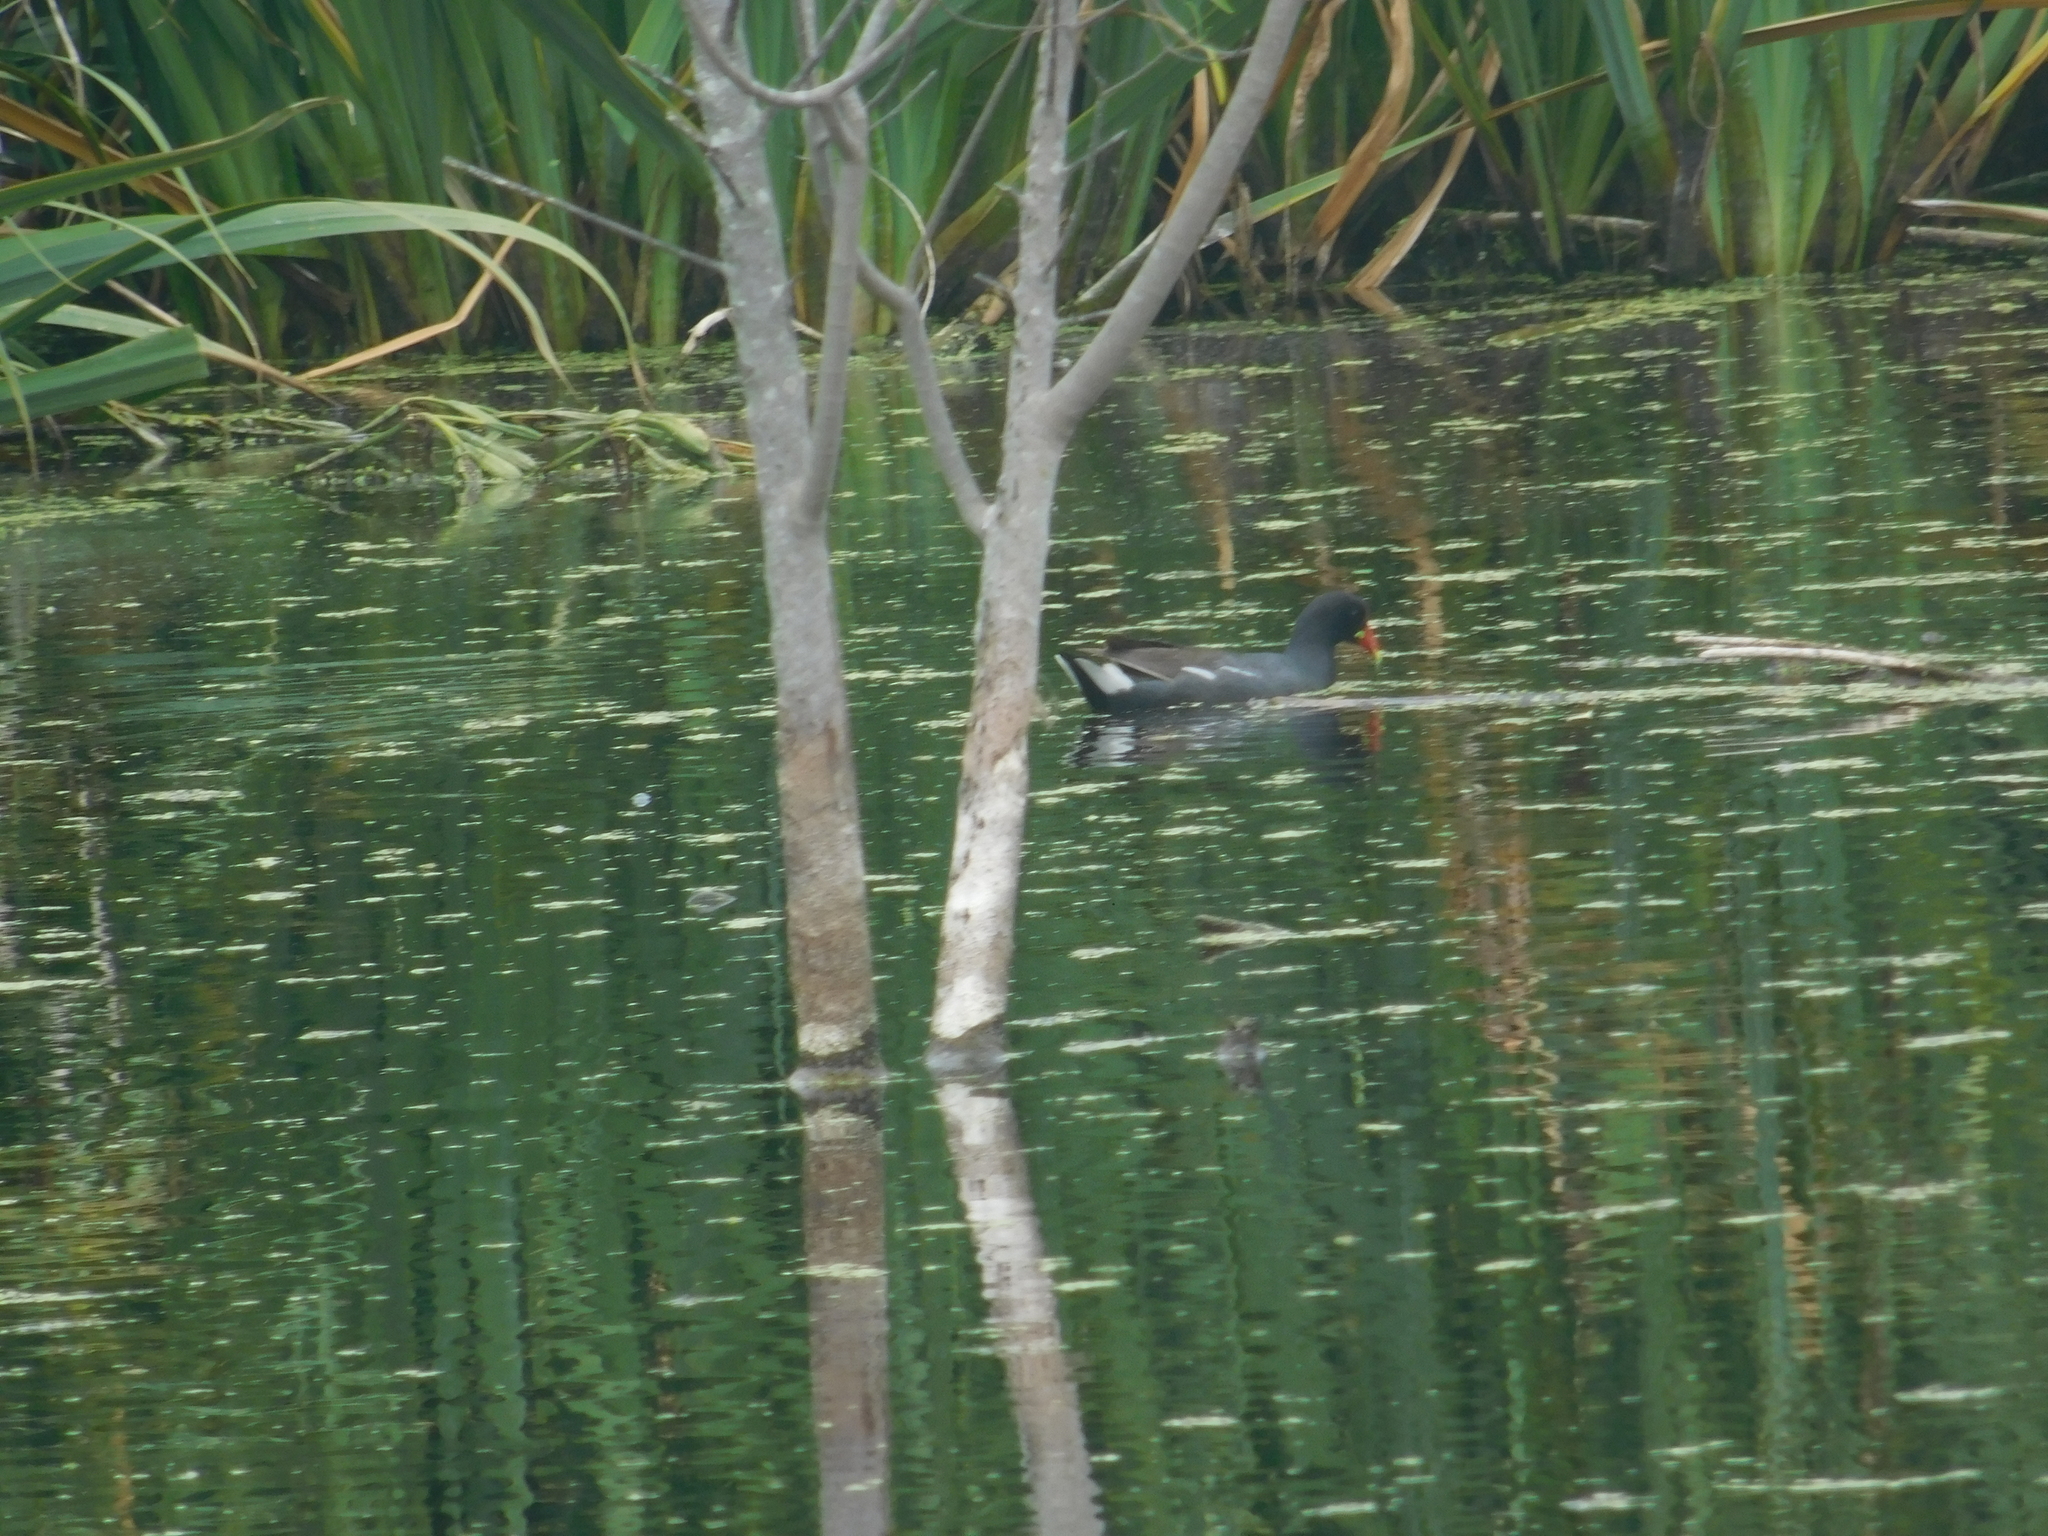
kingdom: Animalia
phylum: Chordata
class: Aves
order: Gruiformes
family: Rallidae
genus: Gallinula
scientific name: Gallinula chloropus
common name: Common moorhen
